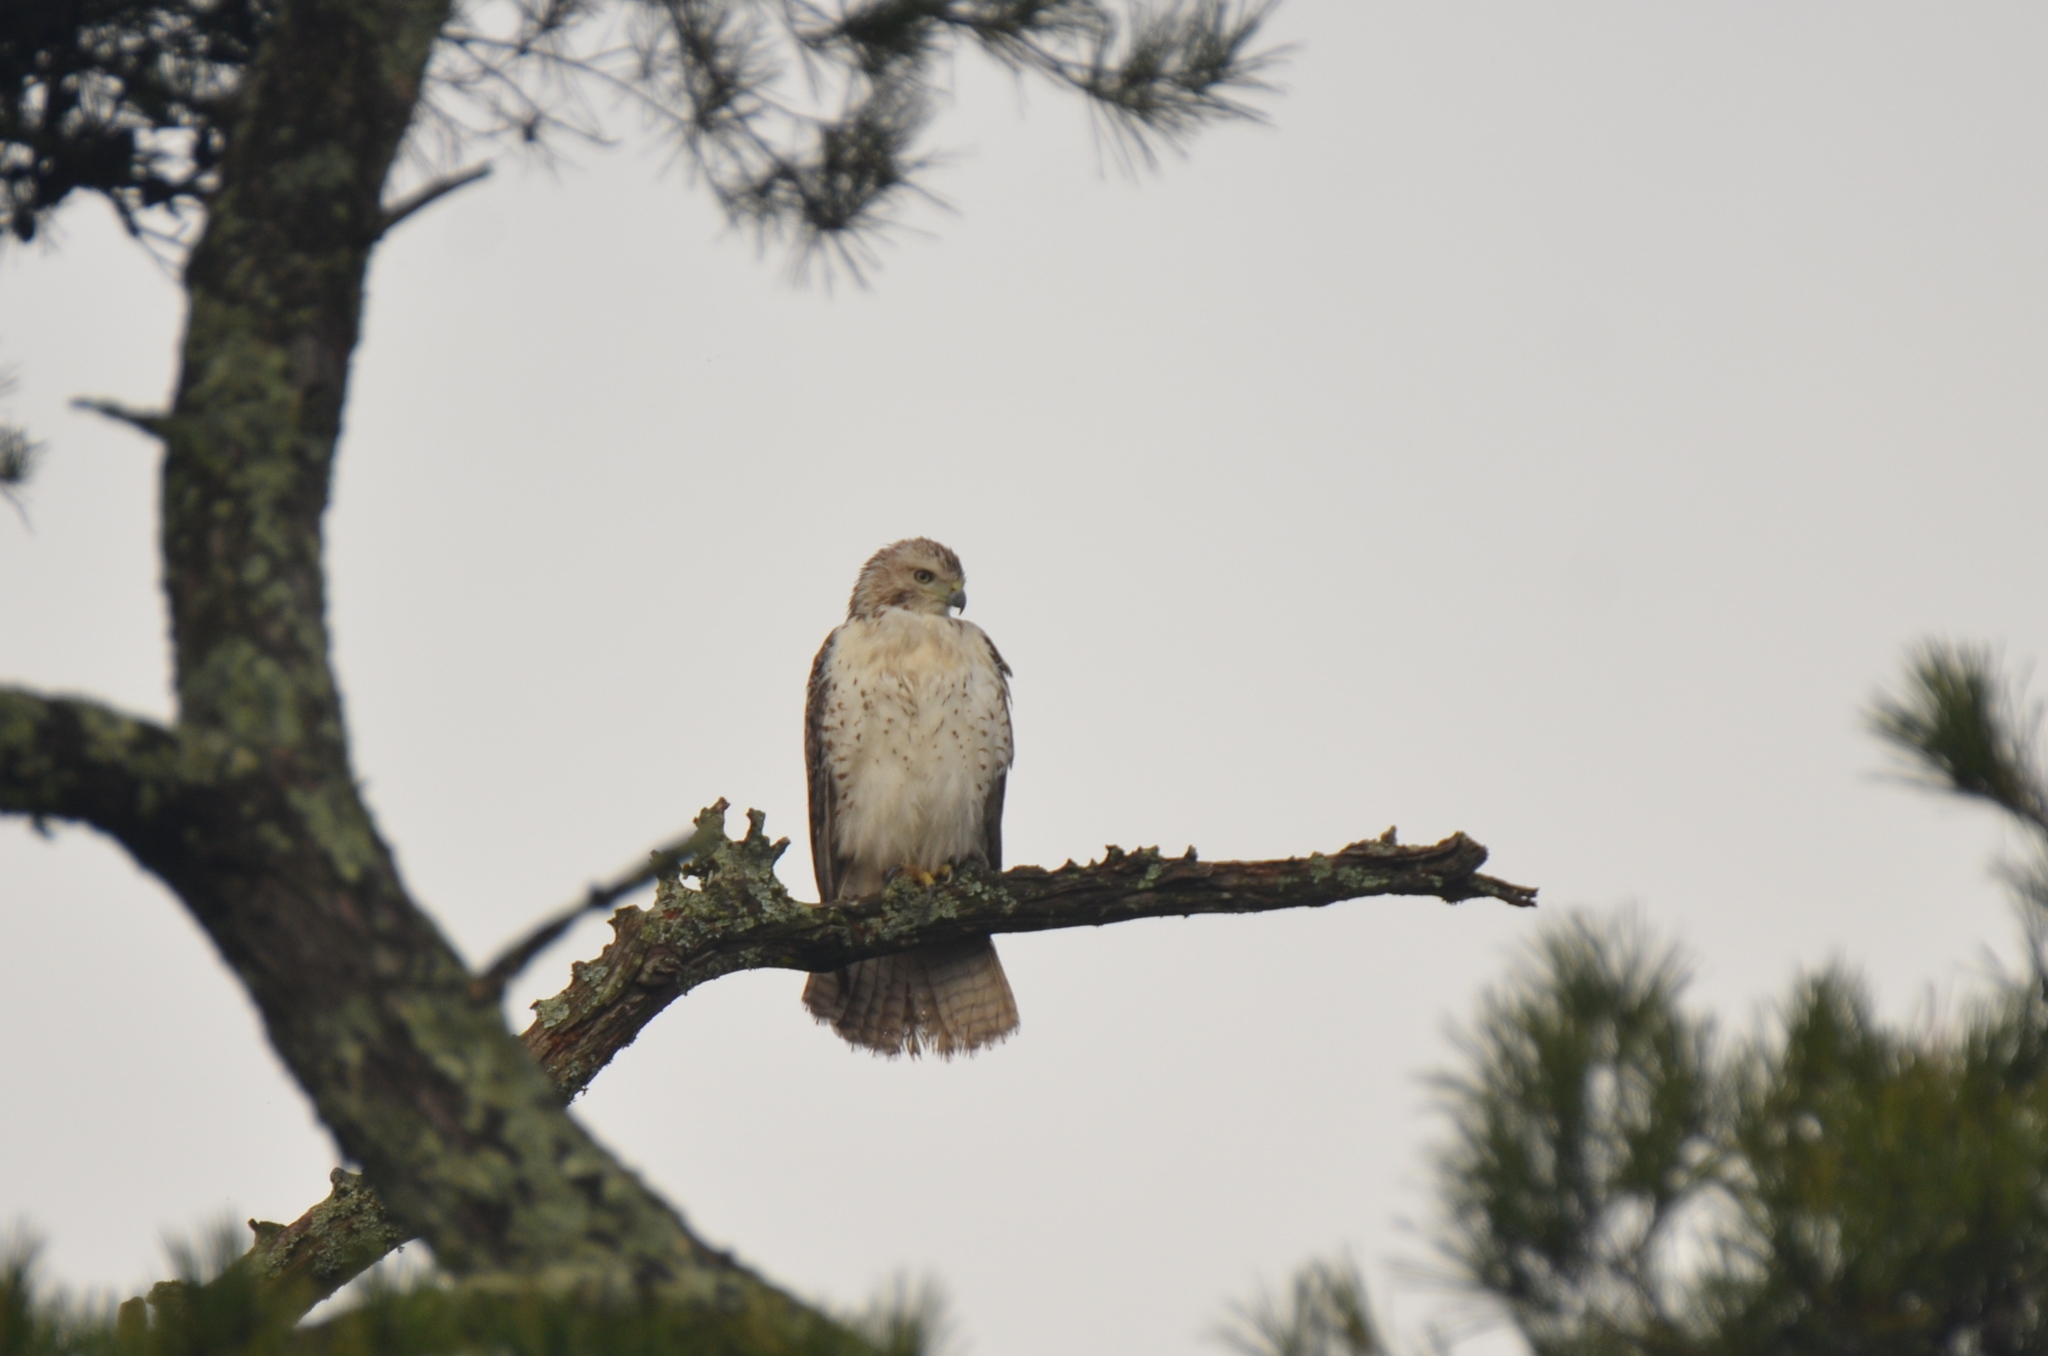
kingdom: Animalia
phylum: Chordata
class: Aves
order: Accipitriformes
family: Accipitridae
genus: Buteo
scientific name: Buteo jamaicensis
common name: Red-tailed hawk
